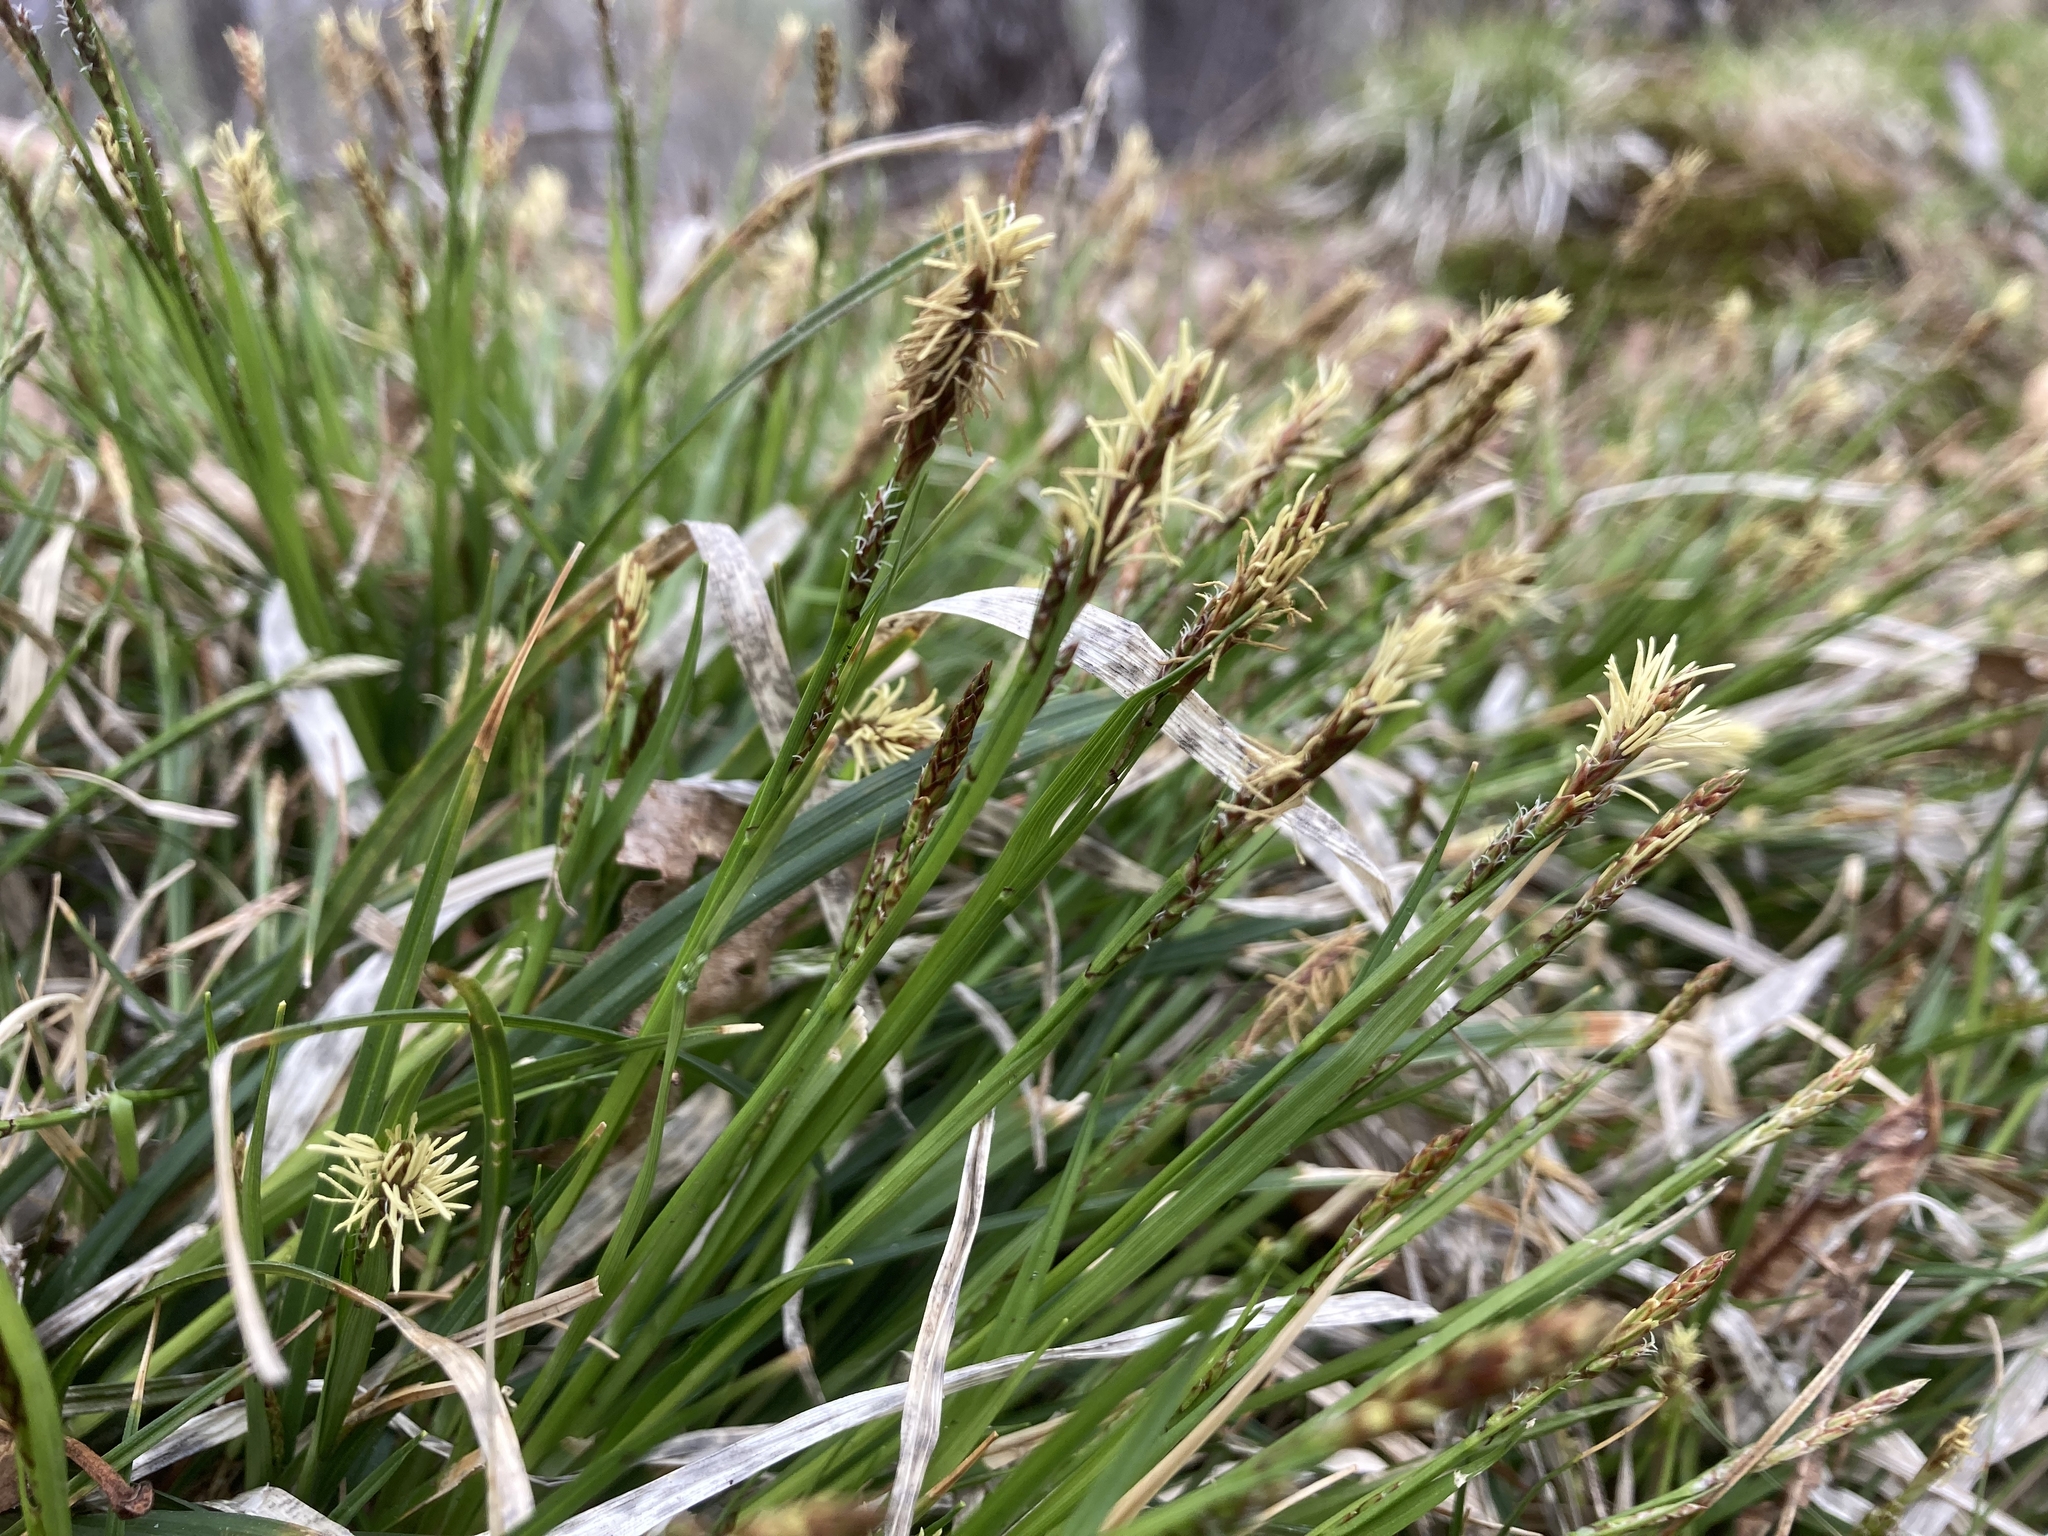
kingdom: Plantae
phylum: Tracheophyta
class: Liliopsida
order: Poales
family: Cyperaceae
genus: Carex
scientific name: Carex lucorum
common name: Blue ridge sedge
